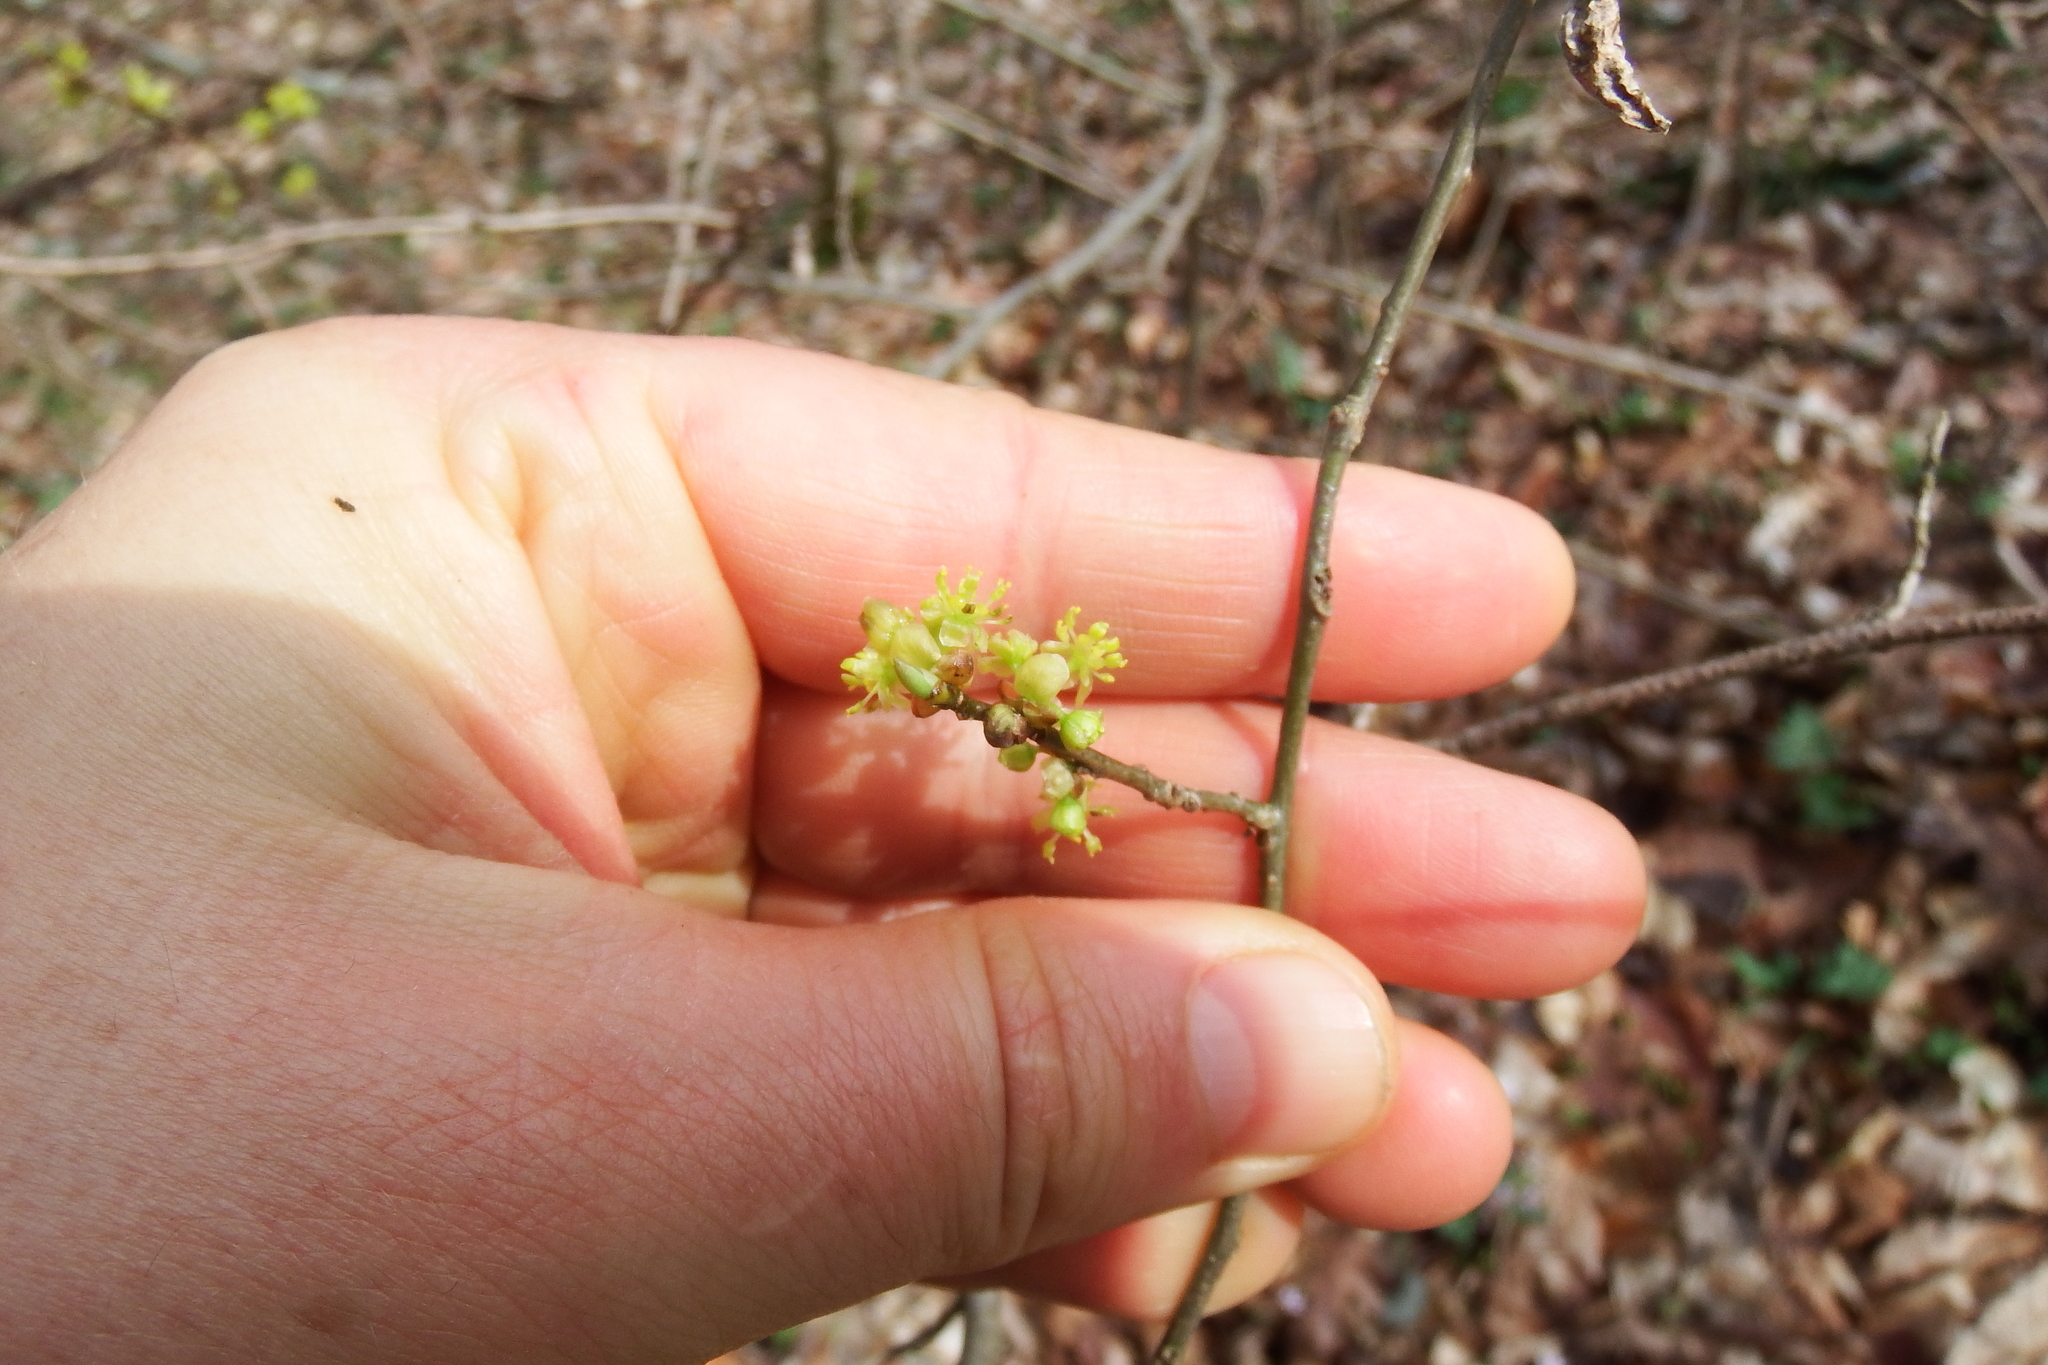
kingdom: Plantae
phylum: Tracheophyta
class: Magnoliopsida
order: Laurales
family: Lauraceae
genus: Lindera
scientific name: Lindera benzoin
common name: Spicebush
